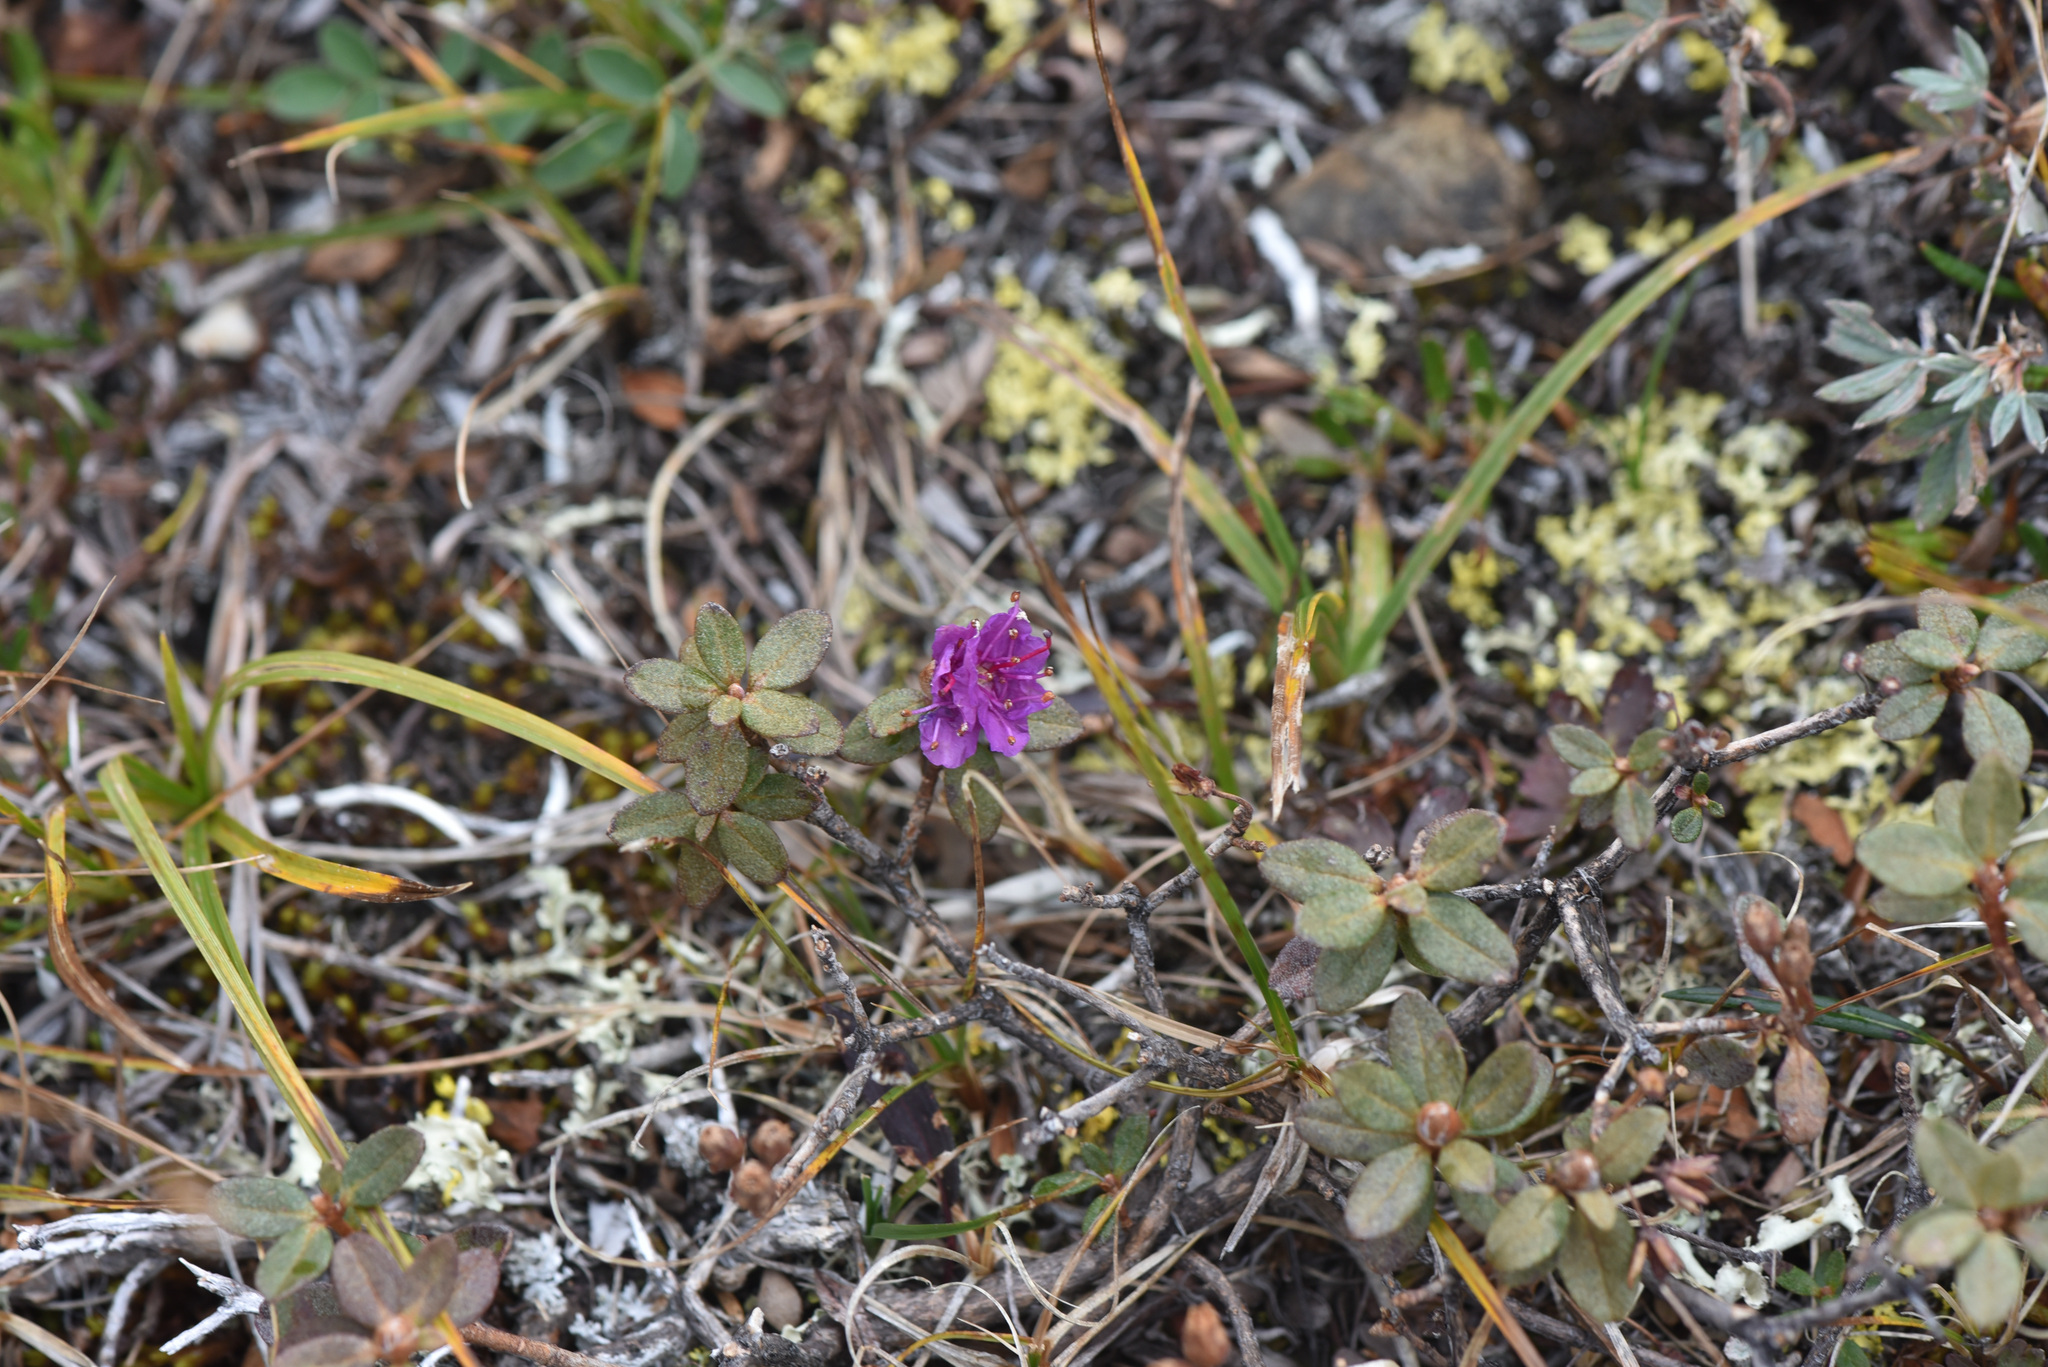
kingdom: Plantae
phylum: Tracheophyta
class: Magnoliopsida
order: Ericales
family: Ericaceae
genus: Rhododendron
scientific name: Rhododendron lapponicum
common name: Lapland rhododendron
